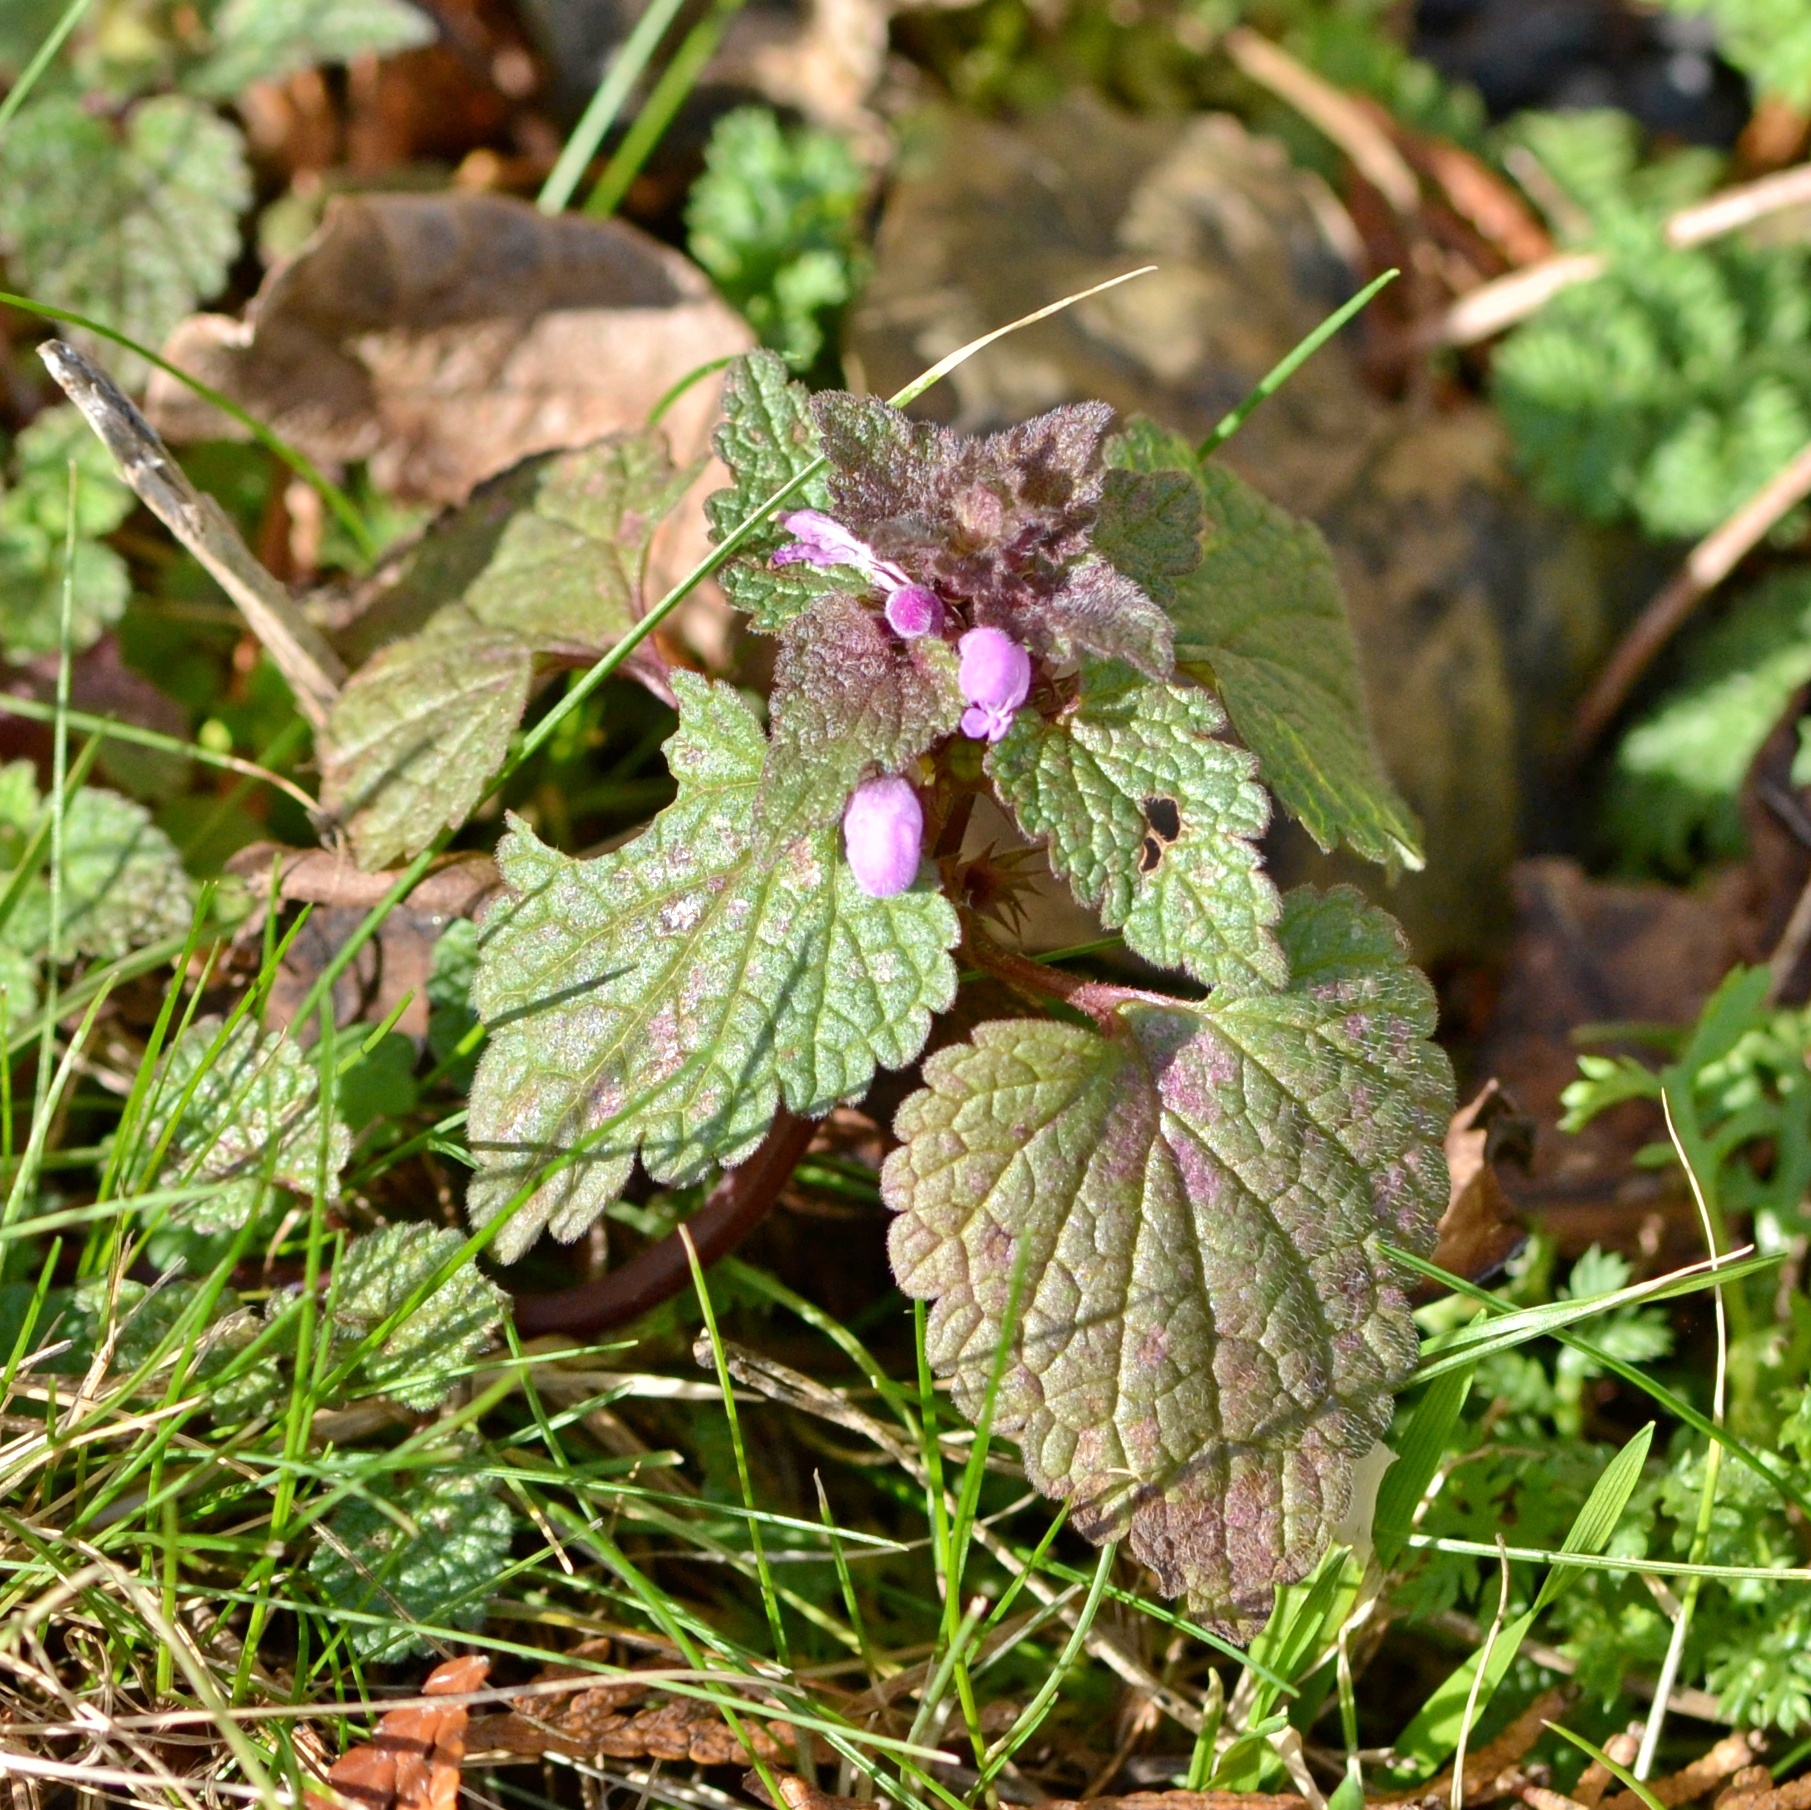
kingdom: Plantae
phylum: Tracheophyta
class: Magnoliopsida
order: Lamiales
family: Lamiaceae
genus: Lamium
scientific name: Lamium purpureum
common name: Red dead-nettle
